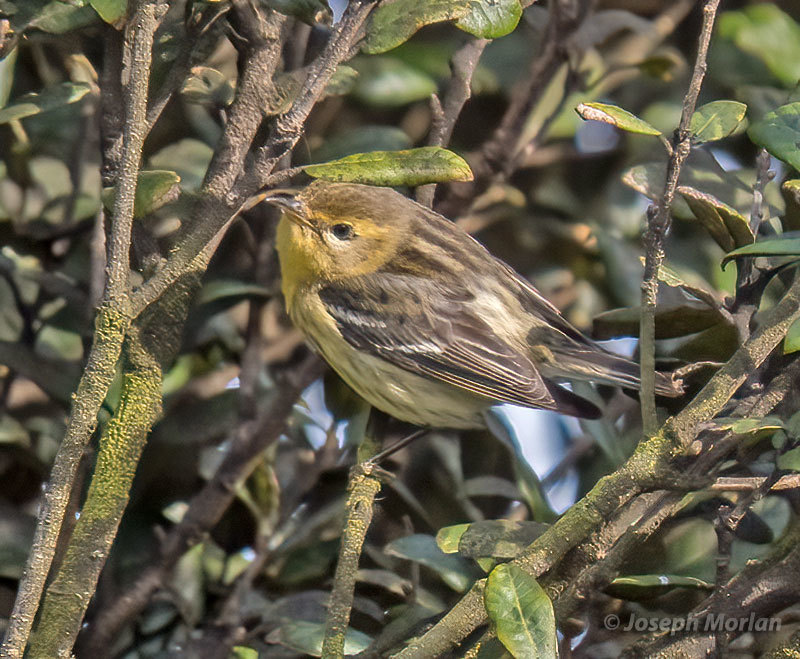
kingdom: Animalia
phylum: Chordata
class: Aves
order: Passeriformes
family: Parulidae
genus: Setophaga
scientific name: Setophaga fusca
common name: Blackburnian warbler
